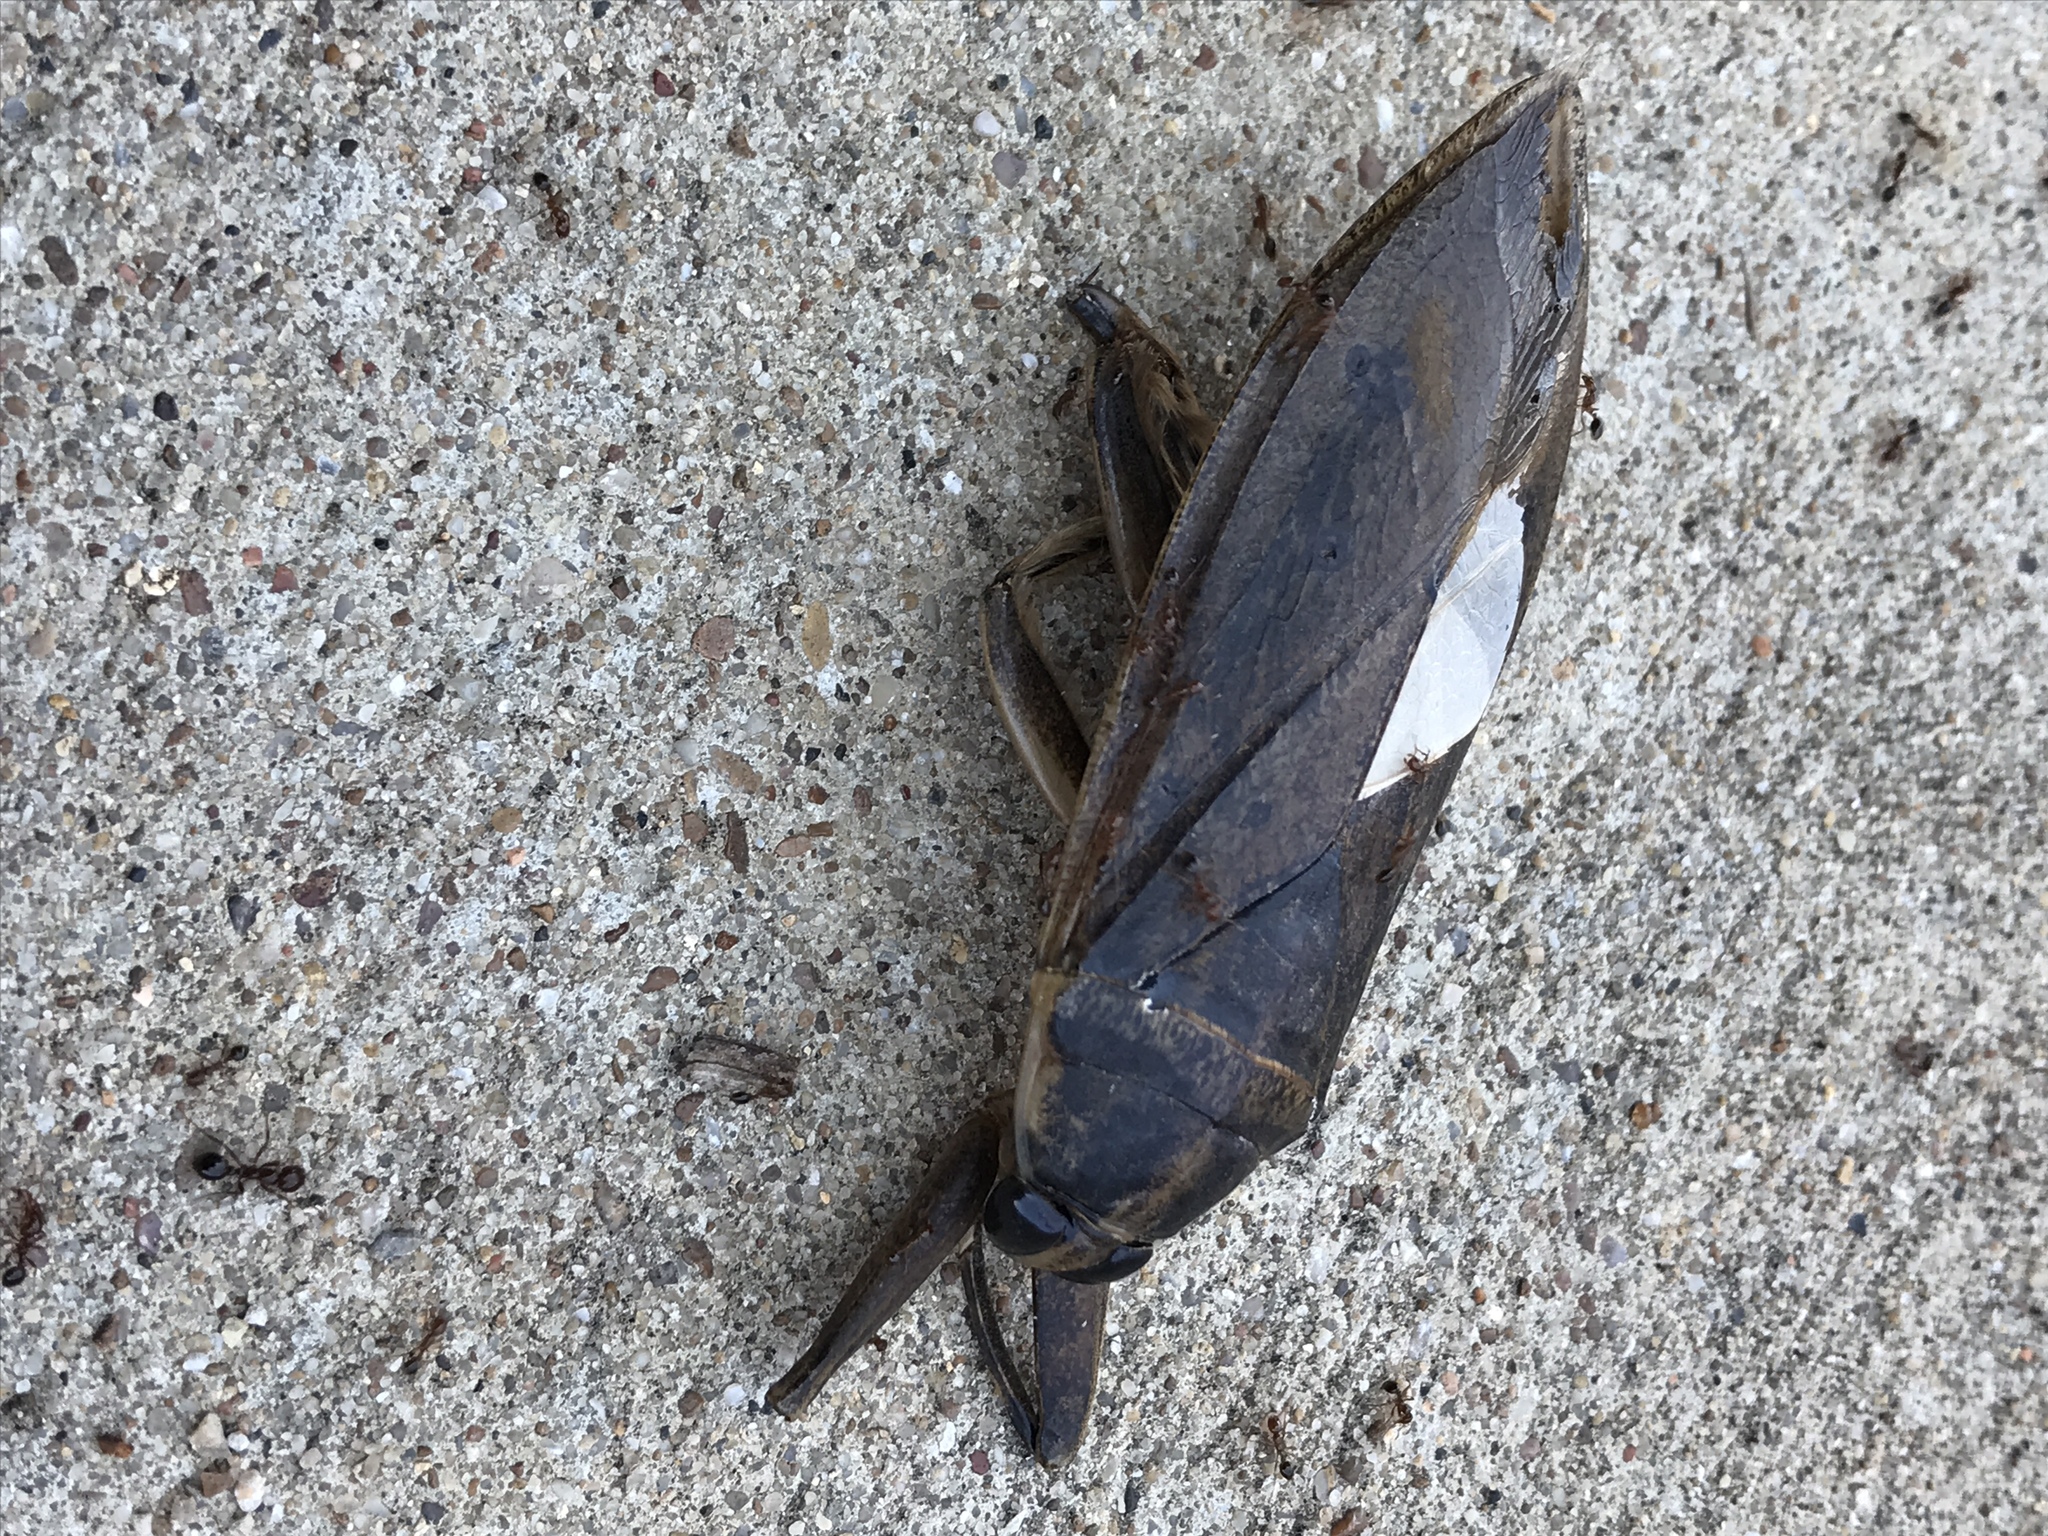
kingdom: Animalia
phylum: Arthropoda
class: Insecta
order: Hemiptera
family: Belostomatidae
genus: Benacus
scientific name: Benacus griseus
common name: Eastern toe-biter
